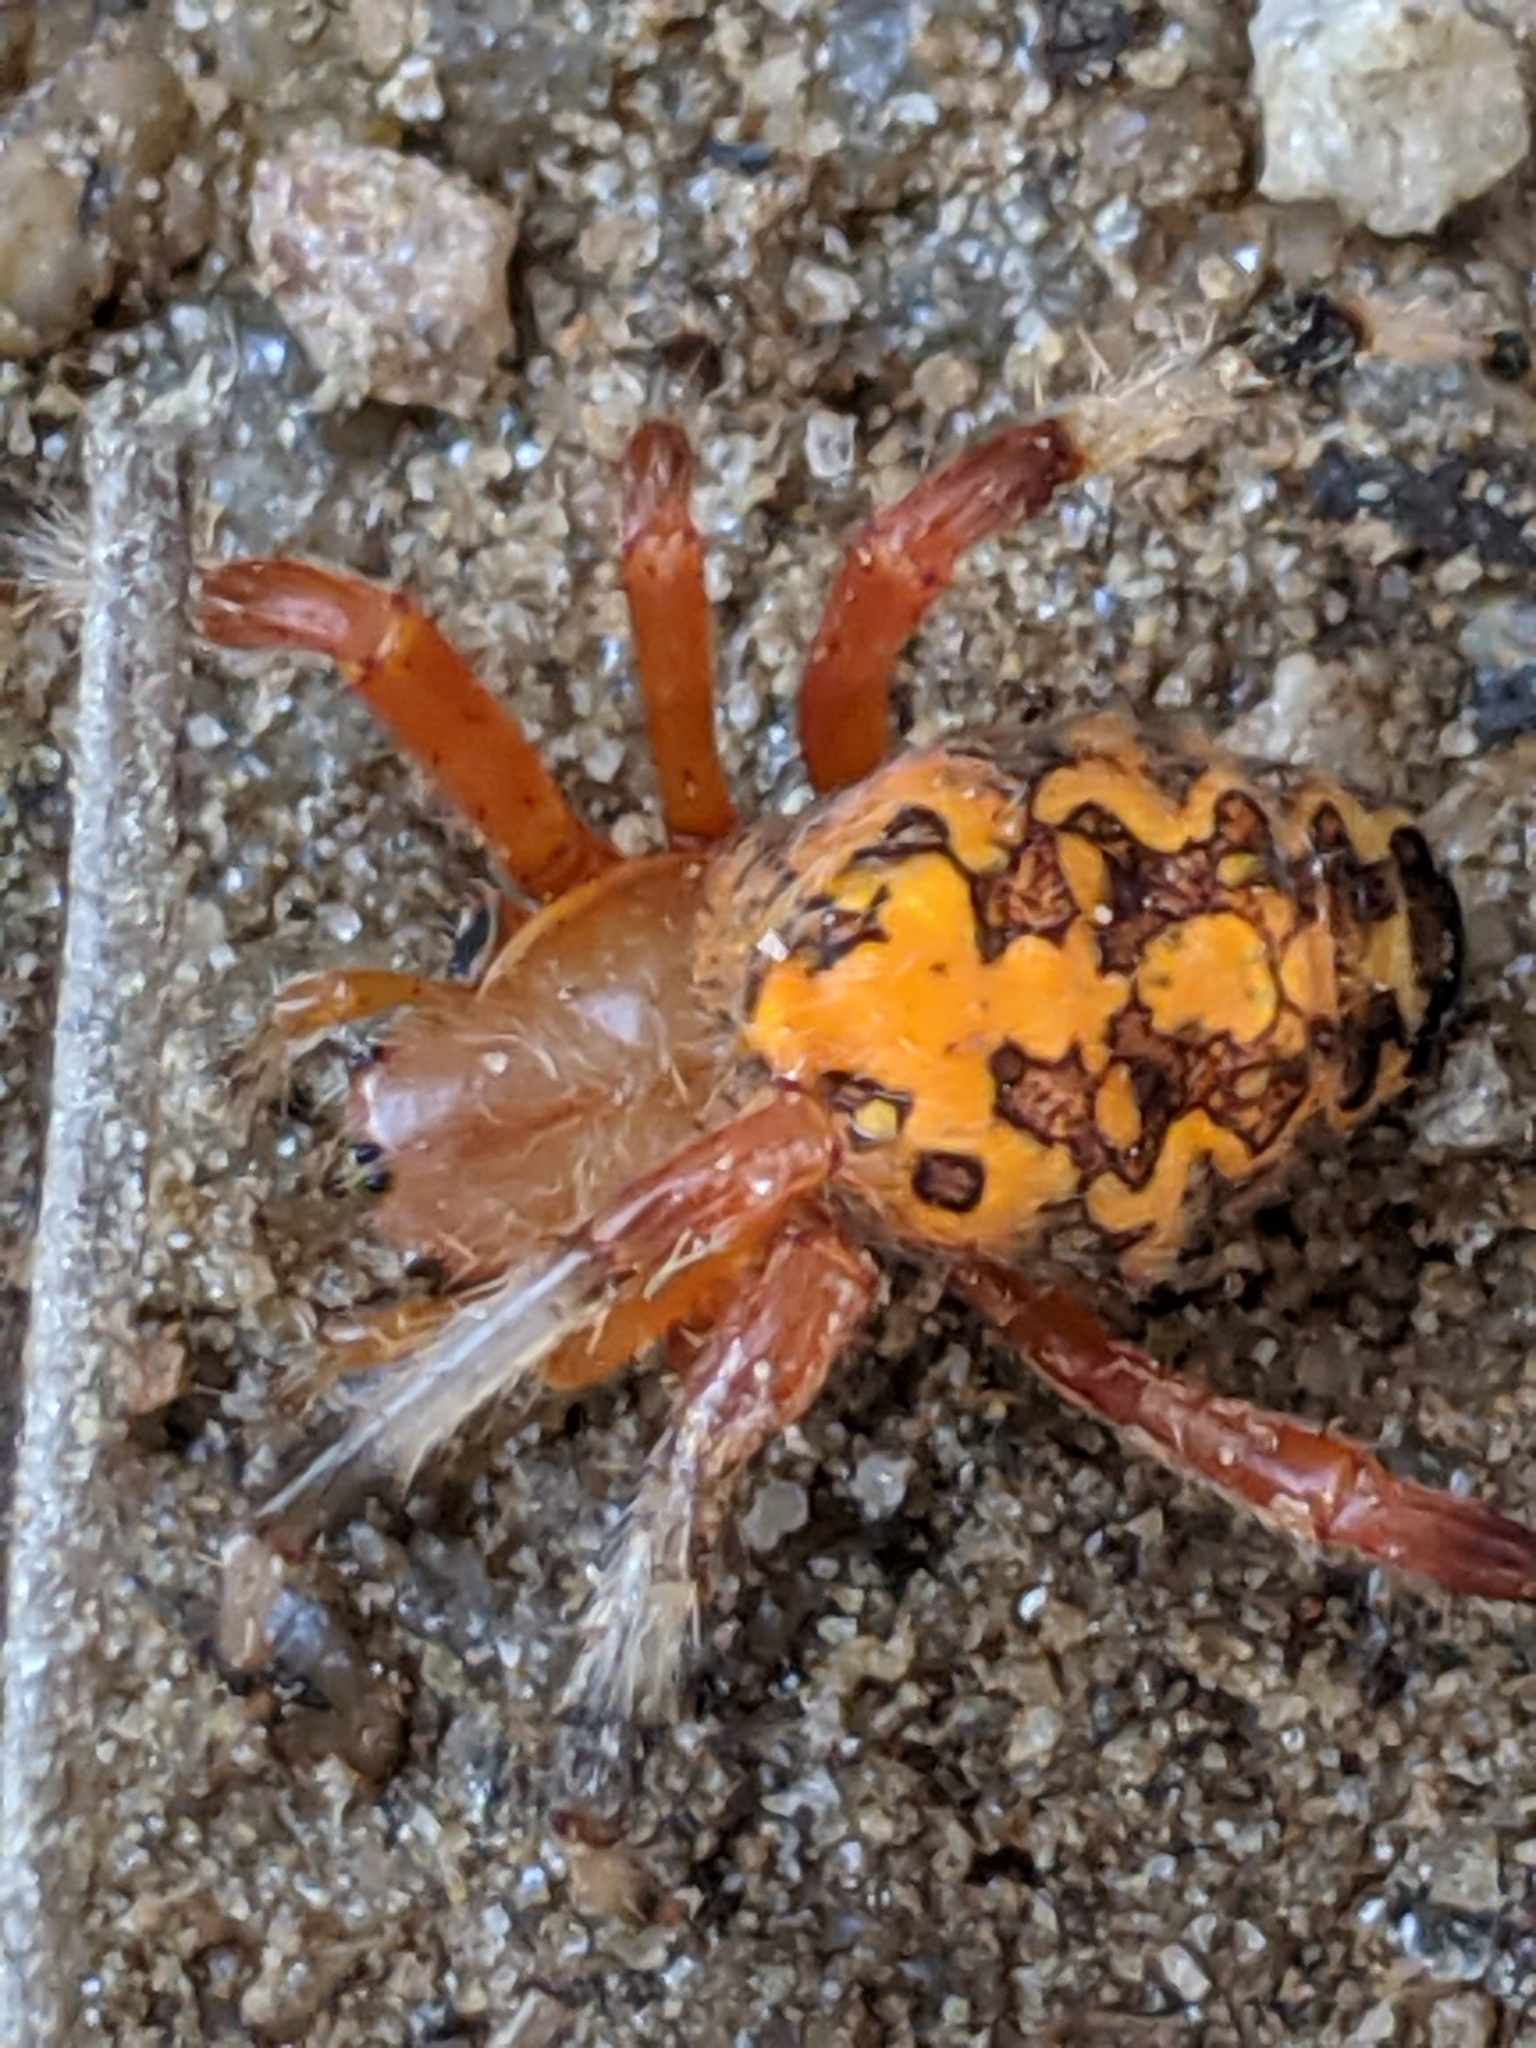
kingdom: Animalia
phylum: Arthropoda
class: Arachnida
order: Araneae
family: Araneidae
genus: Araneus
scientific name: Araneus marmoreus
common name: Marbled orbweaver
